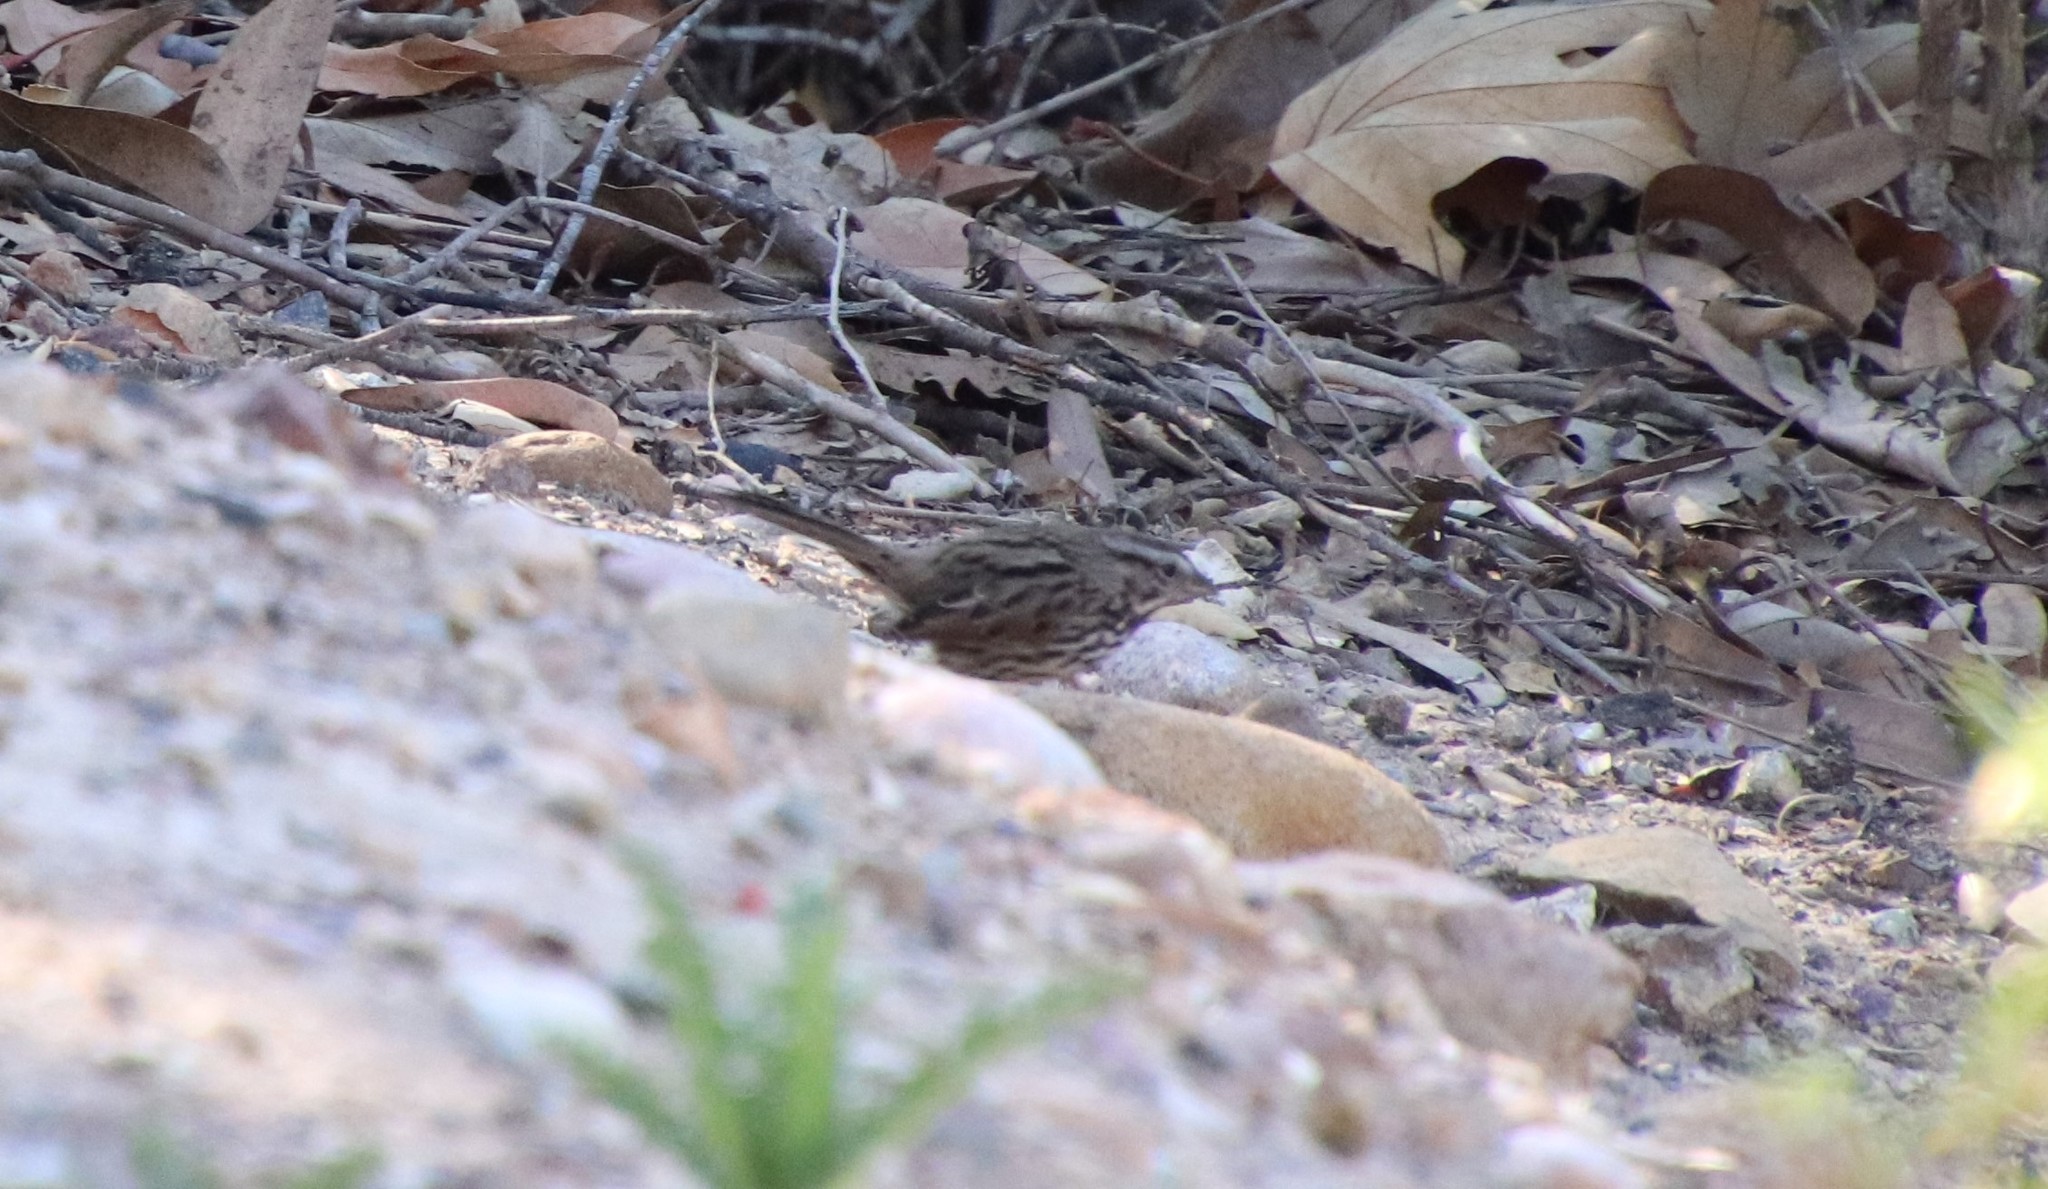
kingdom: Animalia
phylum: Chordata
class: Aves
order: Passeriformes
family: Passerellidae
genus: Melospiza
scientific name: Melospiza melodia
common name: Song sparrow
